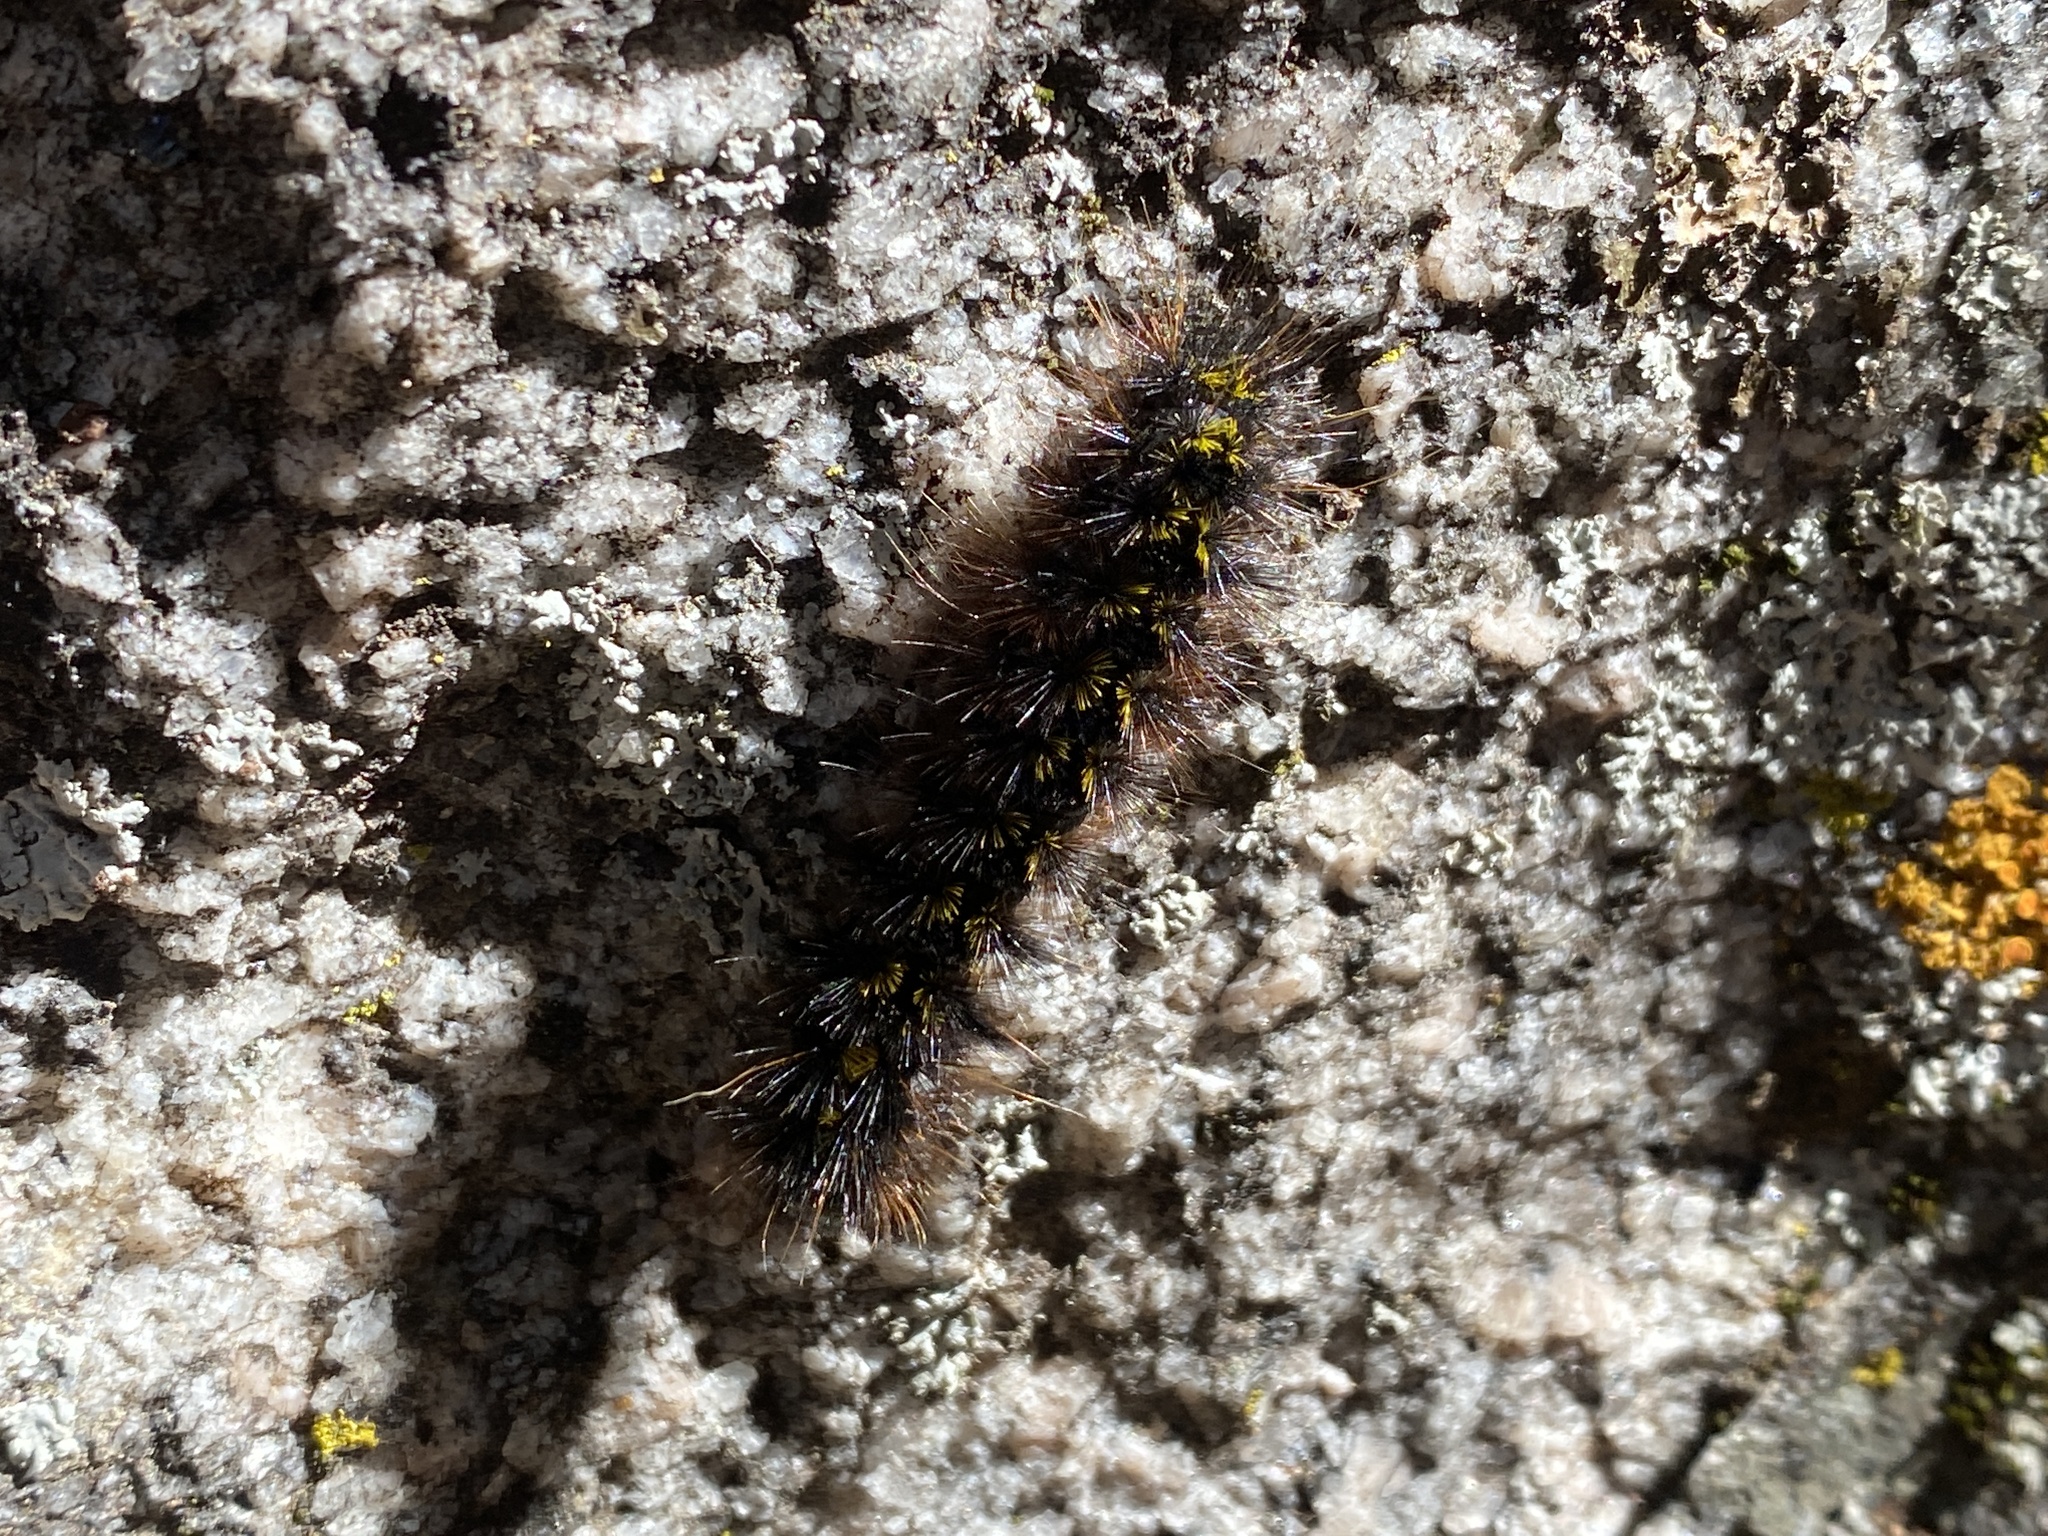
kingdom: Animalia
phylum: Arthropoda
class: Insecta
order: Lepidoptera
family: Erebidae
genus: Lophocampa
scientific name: Lophocampa argentata
